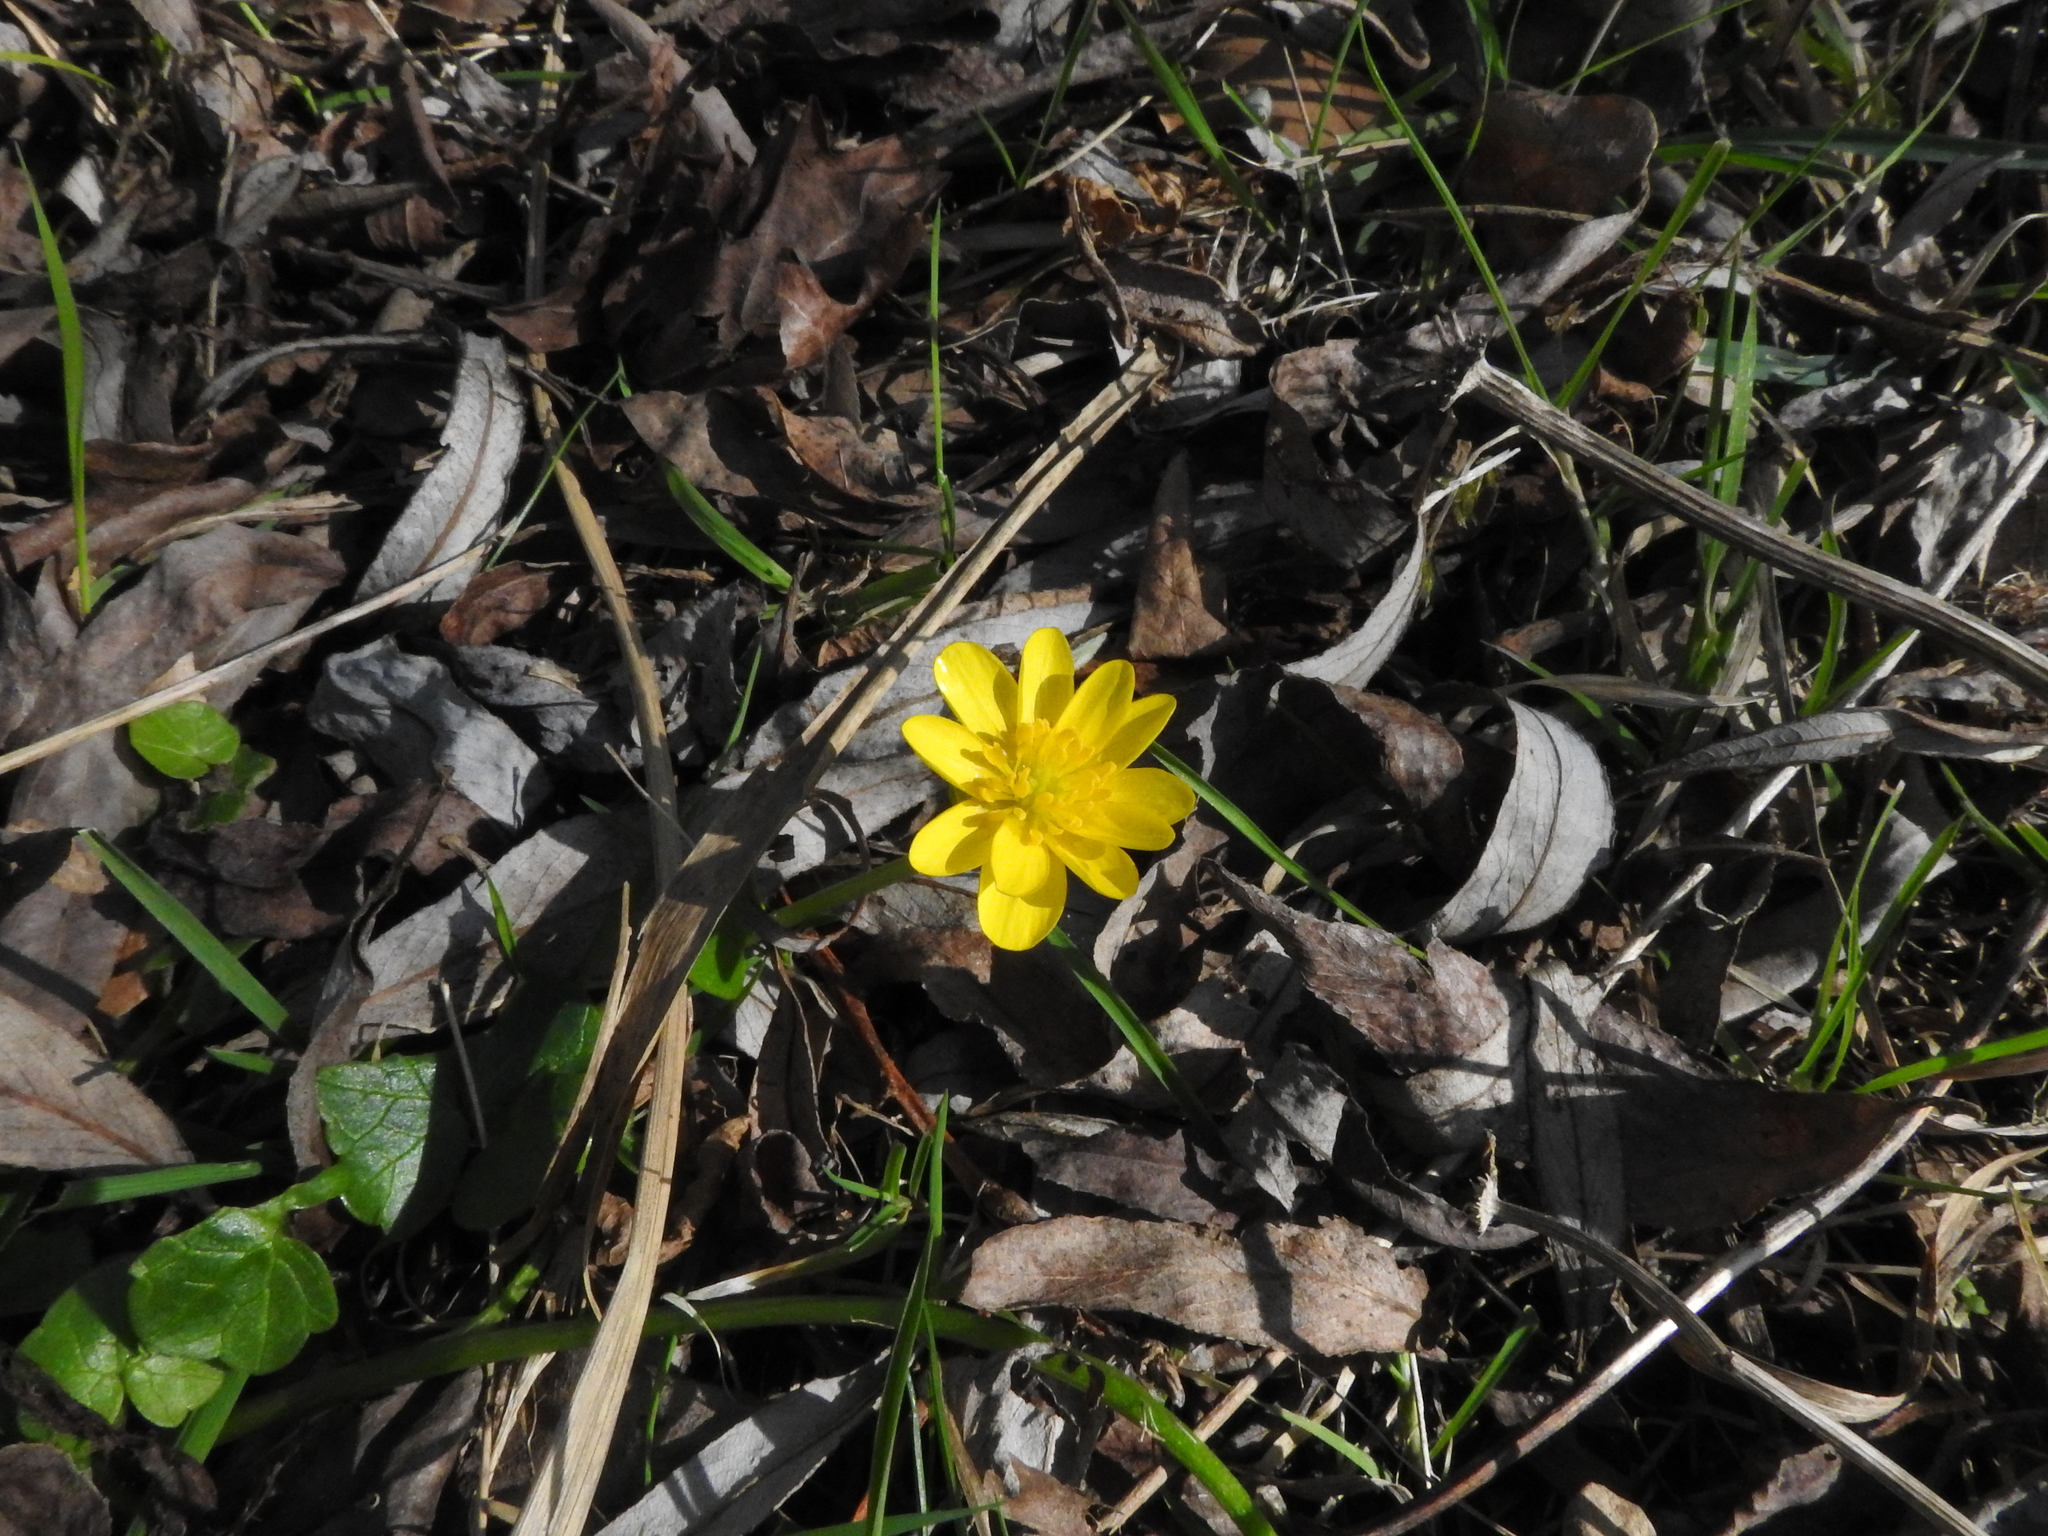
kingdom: Plantae
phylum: Tracheophyta
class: Magnoliopsida
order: Ranunculales
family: Ranunculaceae
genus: Ficaria
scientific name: Ficaria verna
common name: Lesser celandine
